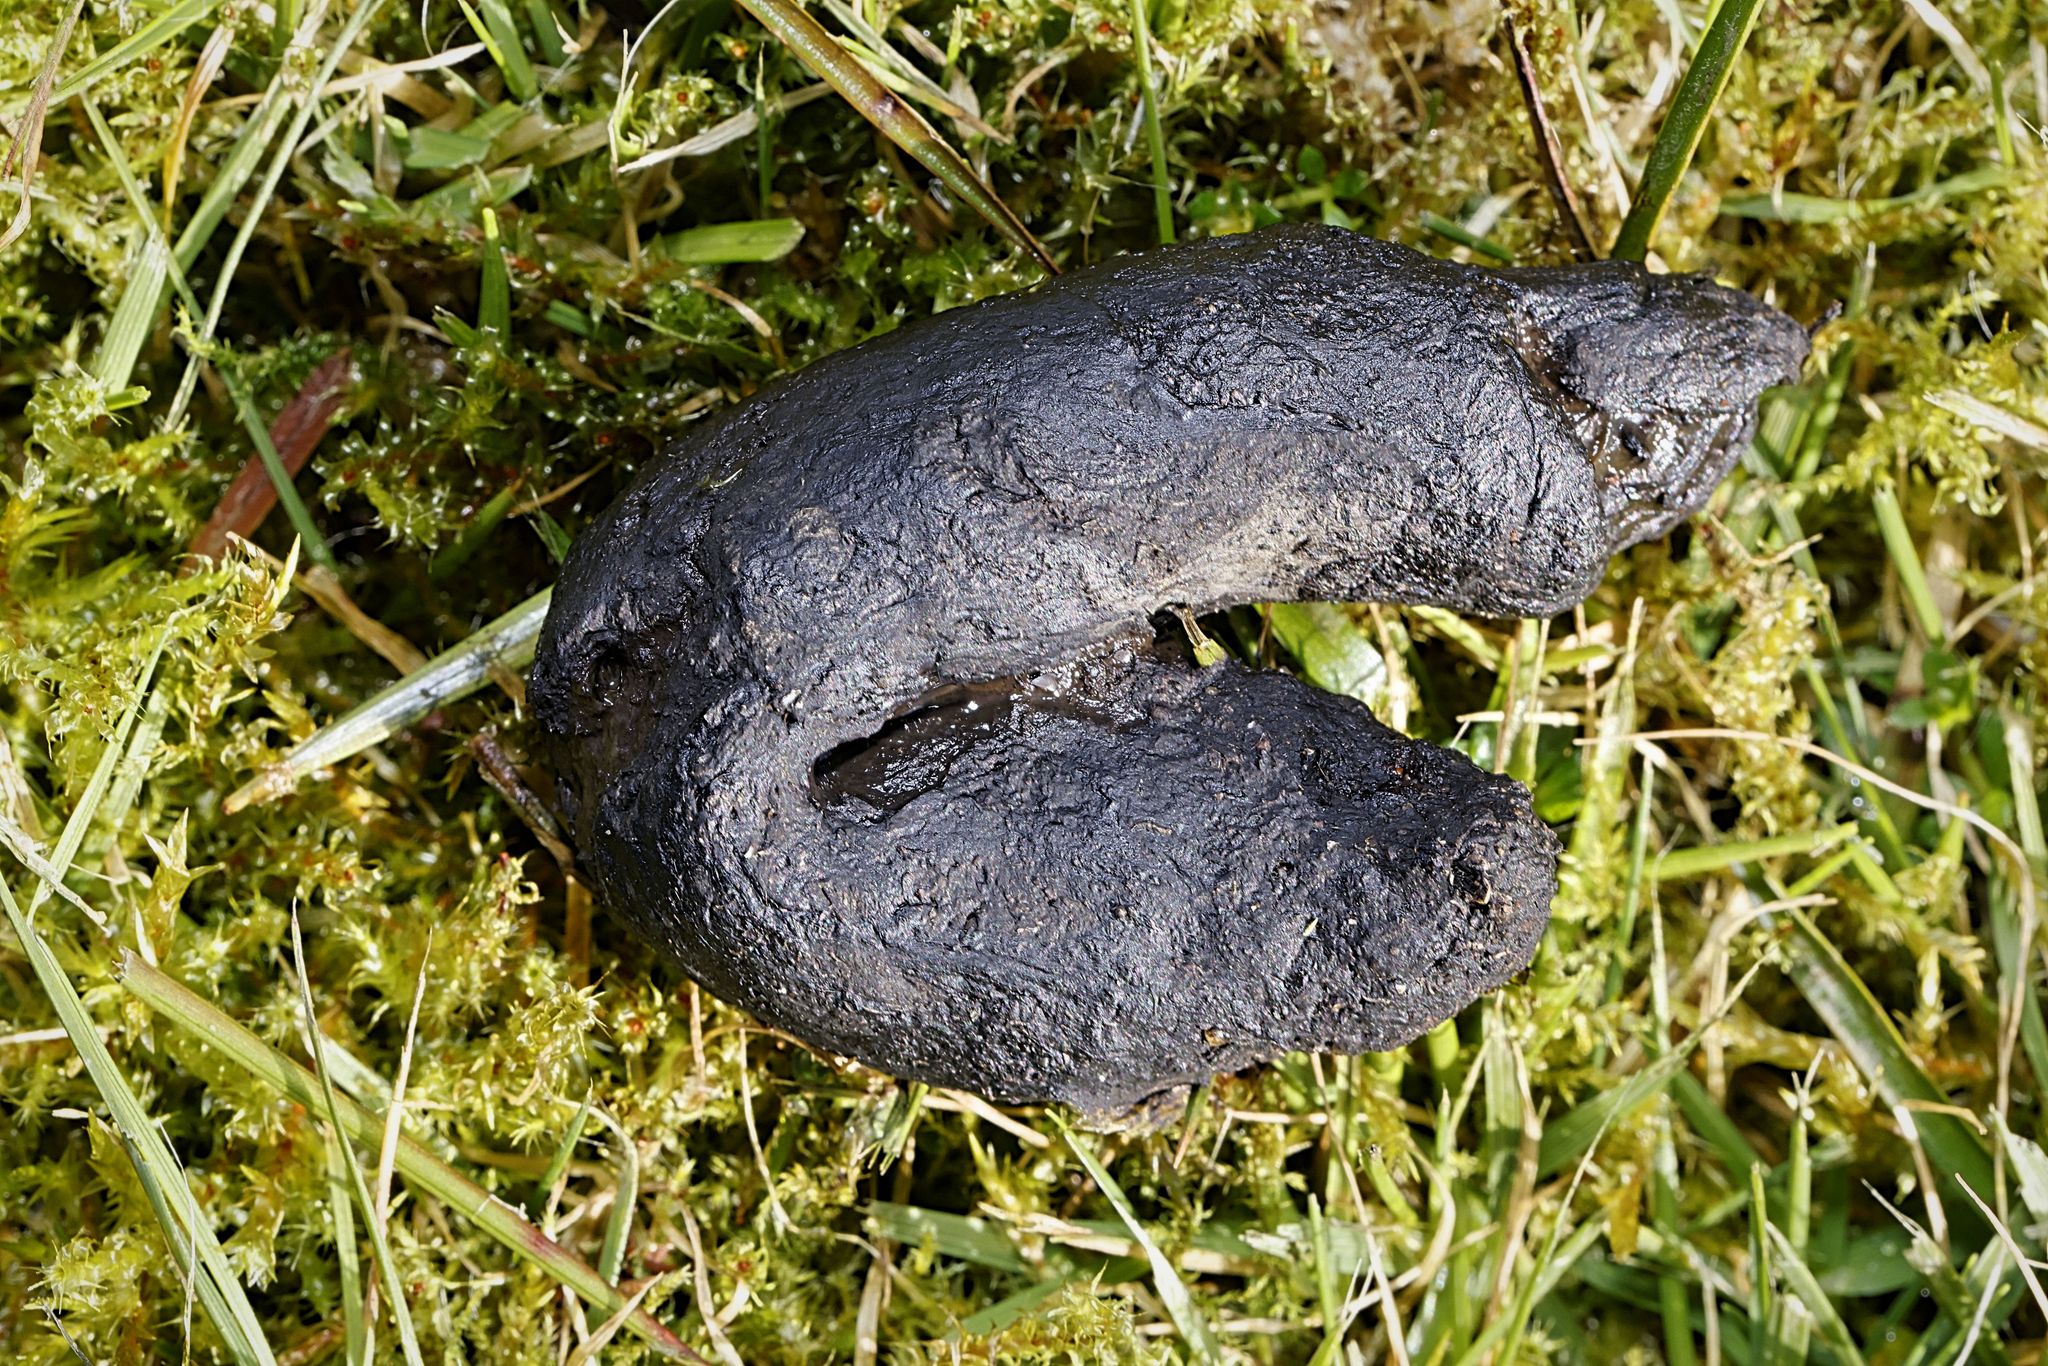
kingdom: Animalia
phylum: Chordata
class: Mammalia
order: Erinaceomorpha
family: Erinaceidae
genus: Erinaceus
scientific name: Erinaceus europaeus
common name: West european hedgehog
